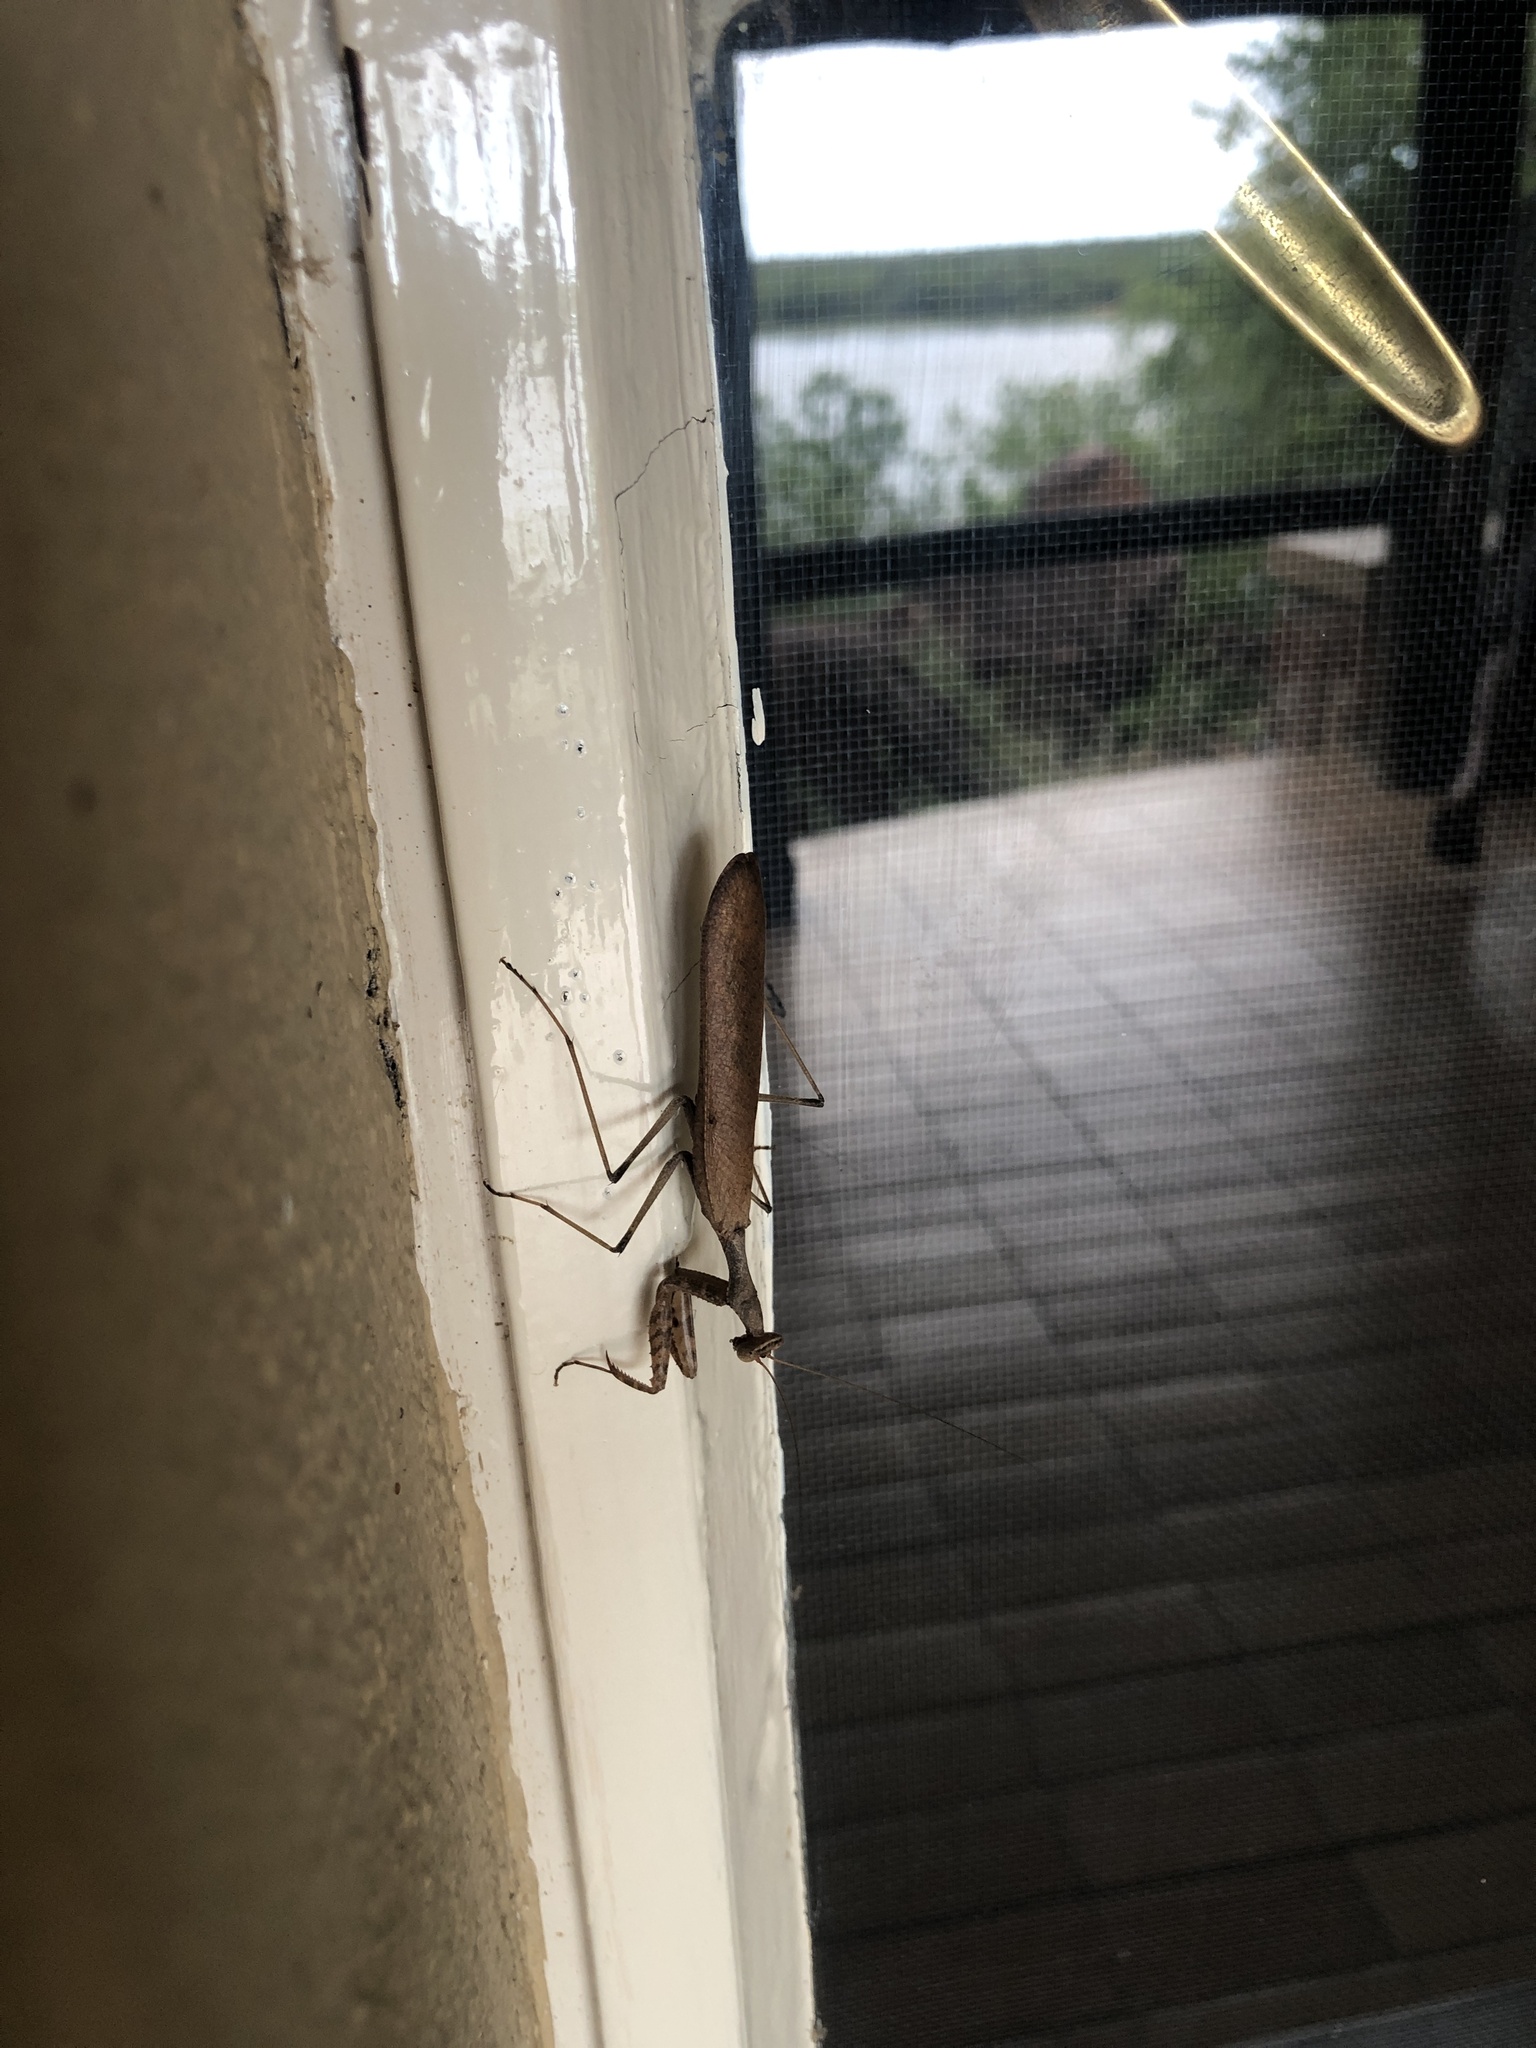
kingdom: Animalia
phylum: Arthropoda
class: Insecta
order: Mantodea
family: Chroicopteridae
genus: Dystacta
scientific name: Dystacta alticeps
